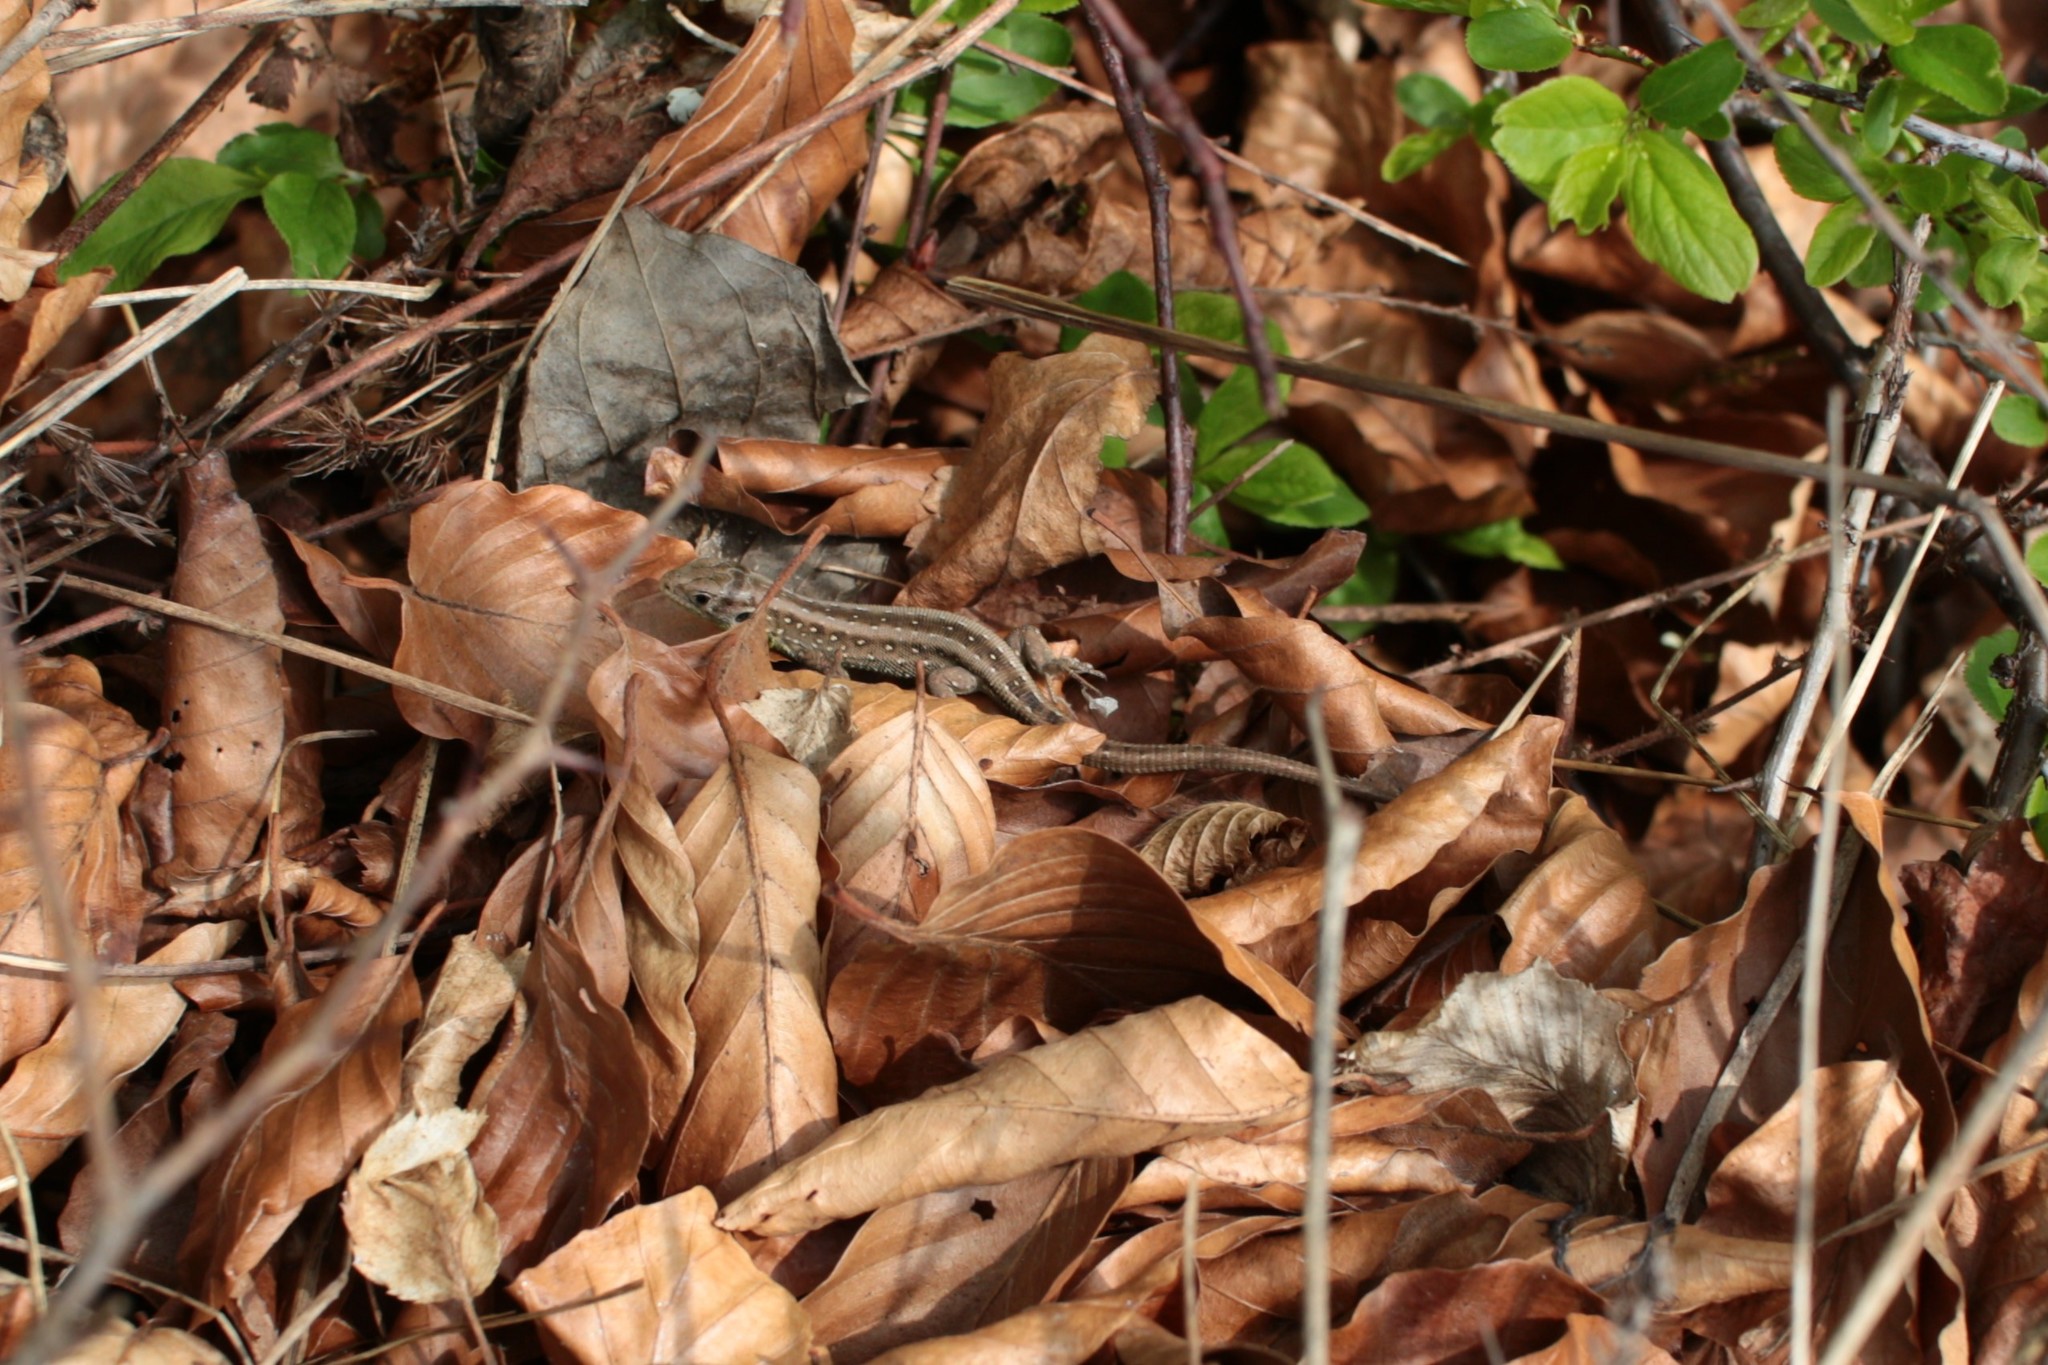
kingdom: Animalia
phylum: Chordata
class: Squamata
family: Lacertidae
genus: Lacerta
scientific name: Lacerta agilis
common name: Sand lizard
